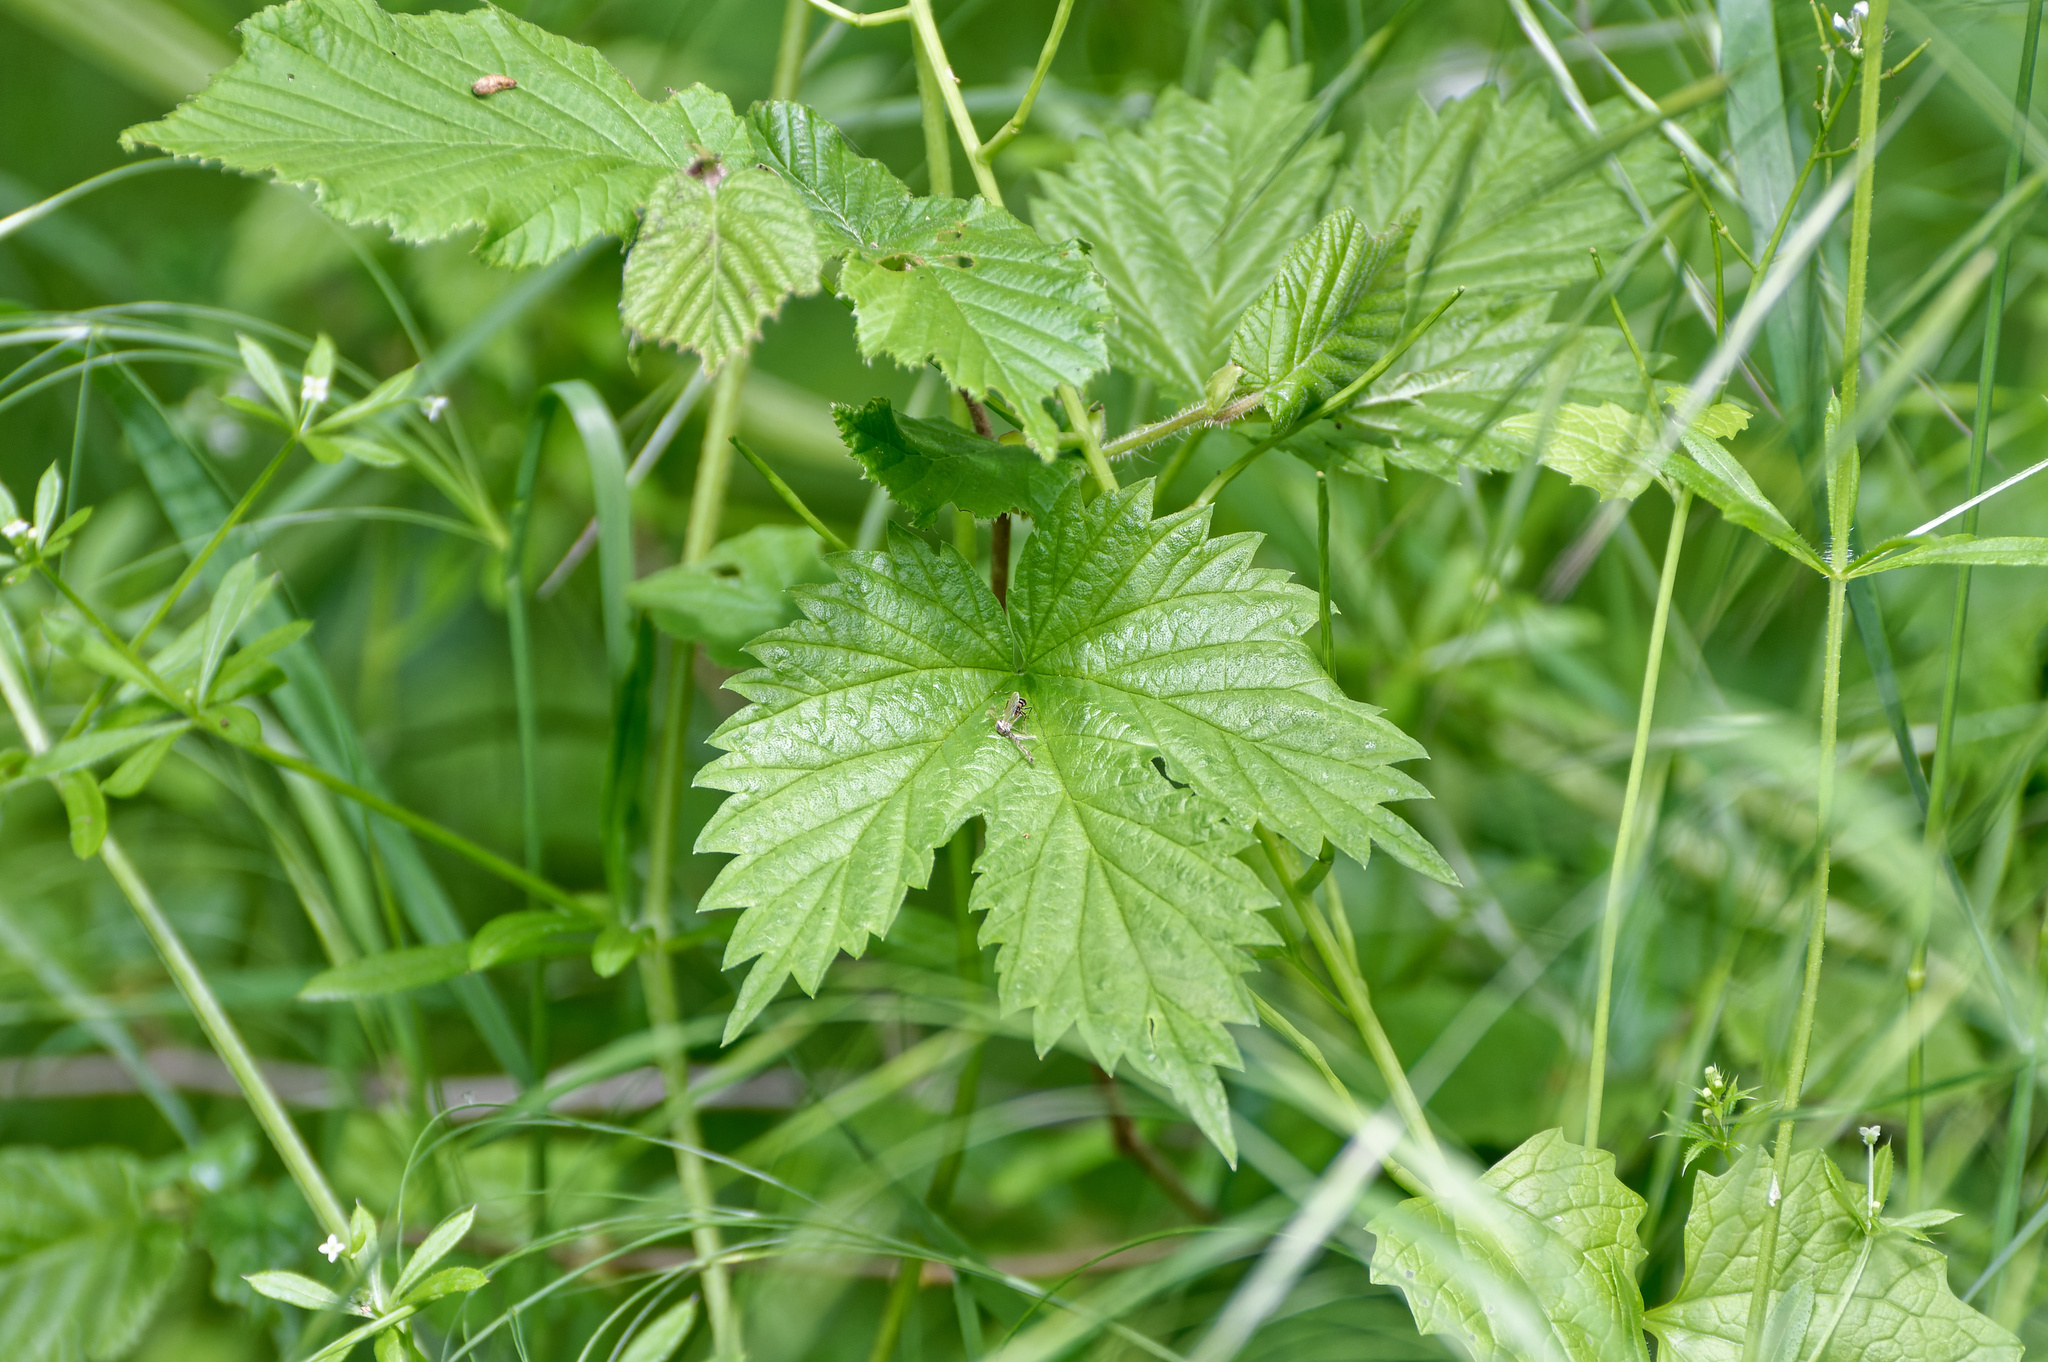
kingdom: Plantae
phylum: Tracheophyta
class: Magnoliopsida
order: Rosales
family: Cannabaceae
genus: Humulus
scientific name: Humulus lupulus
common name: Hop
